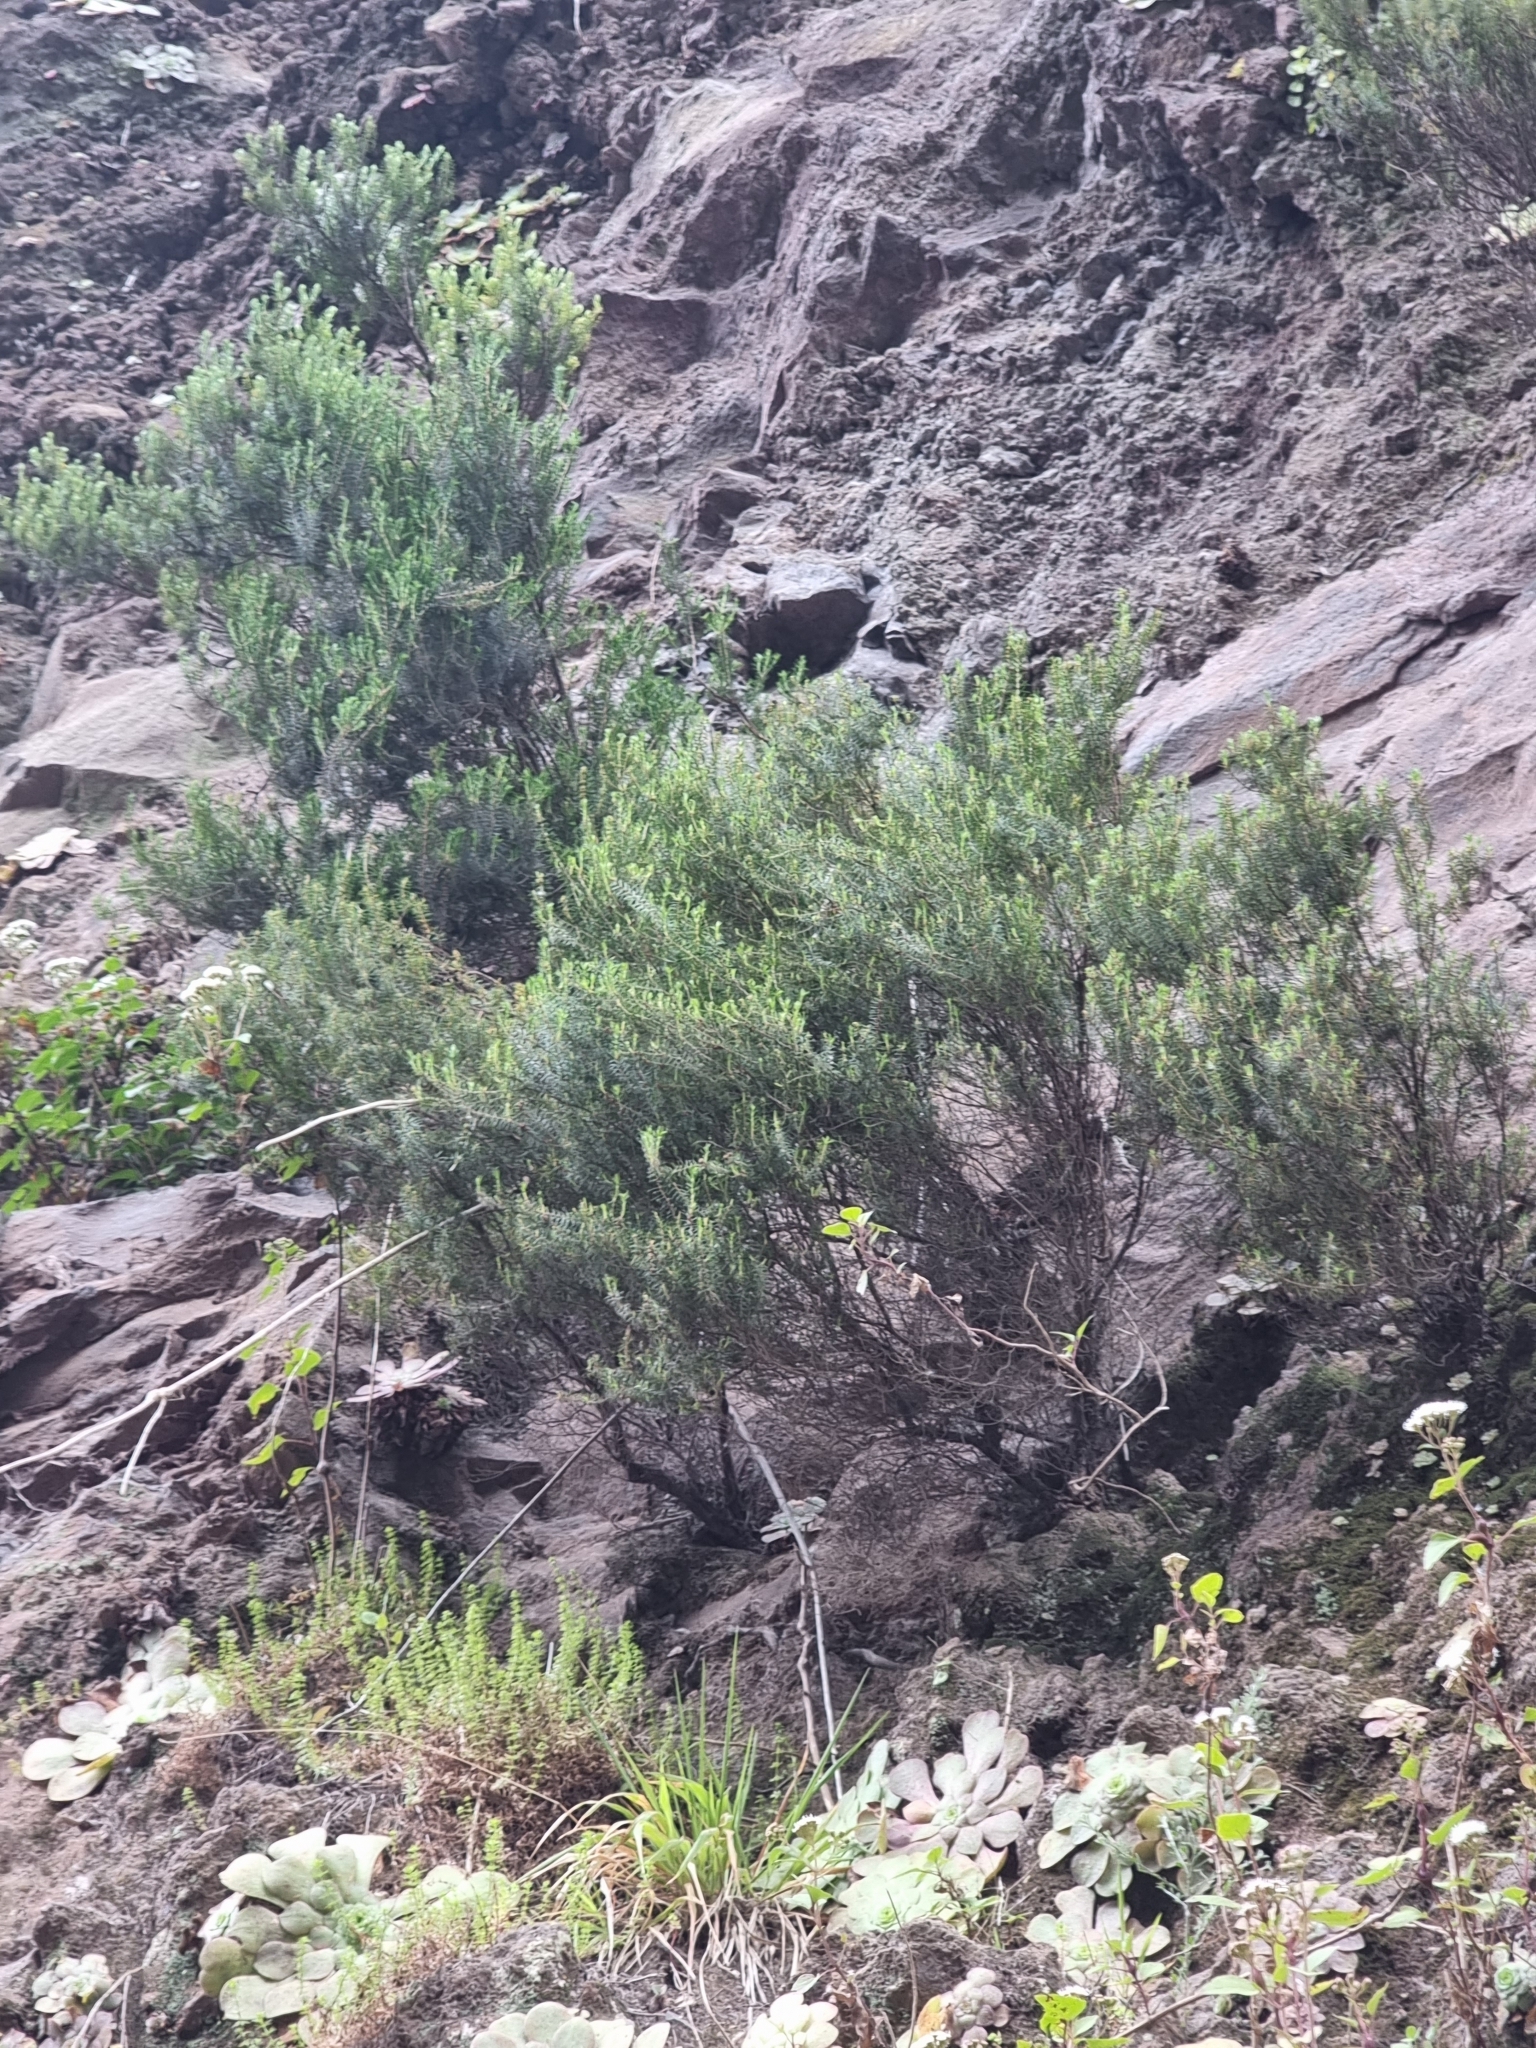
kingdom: Plantae
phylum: Tracheophyta
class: Magnoliopsida
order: Ericales
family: Ericaceae
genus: Erica
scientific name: Erica platycodon
